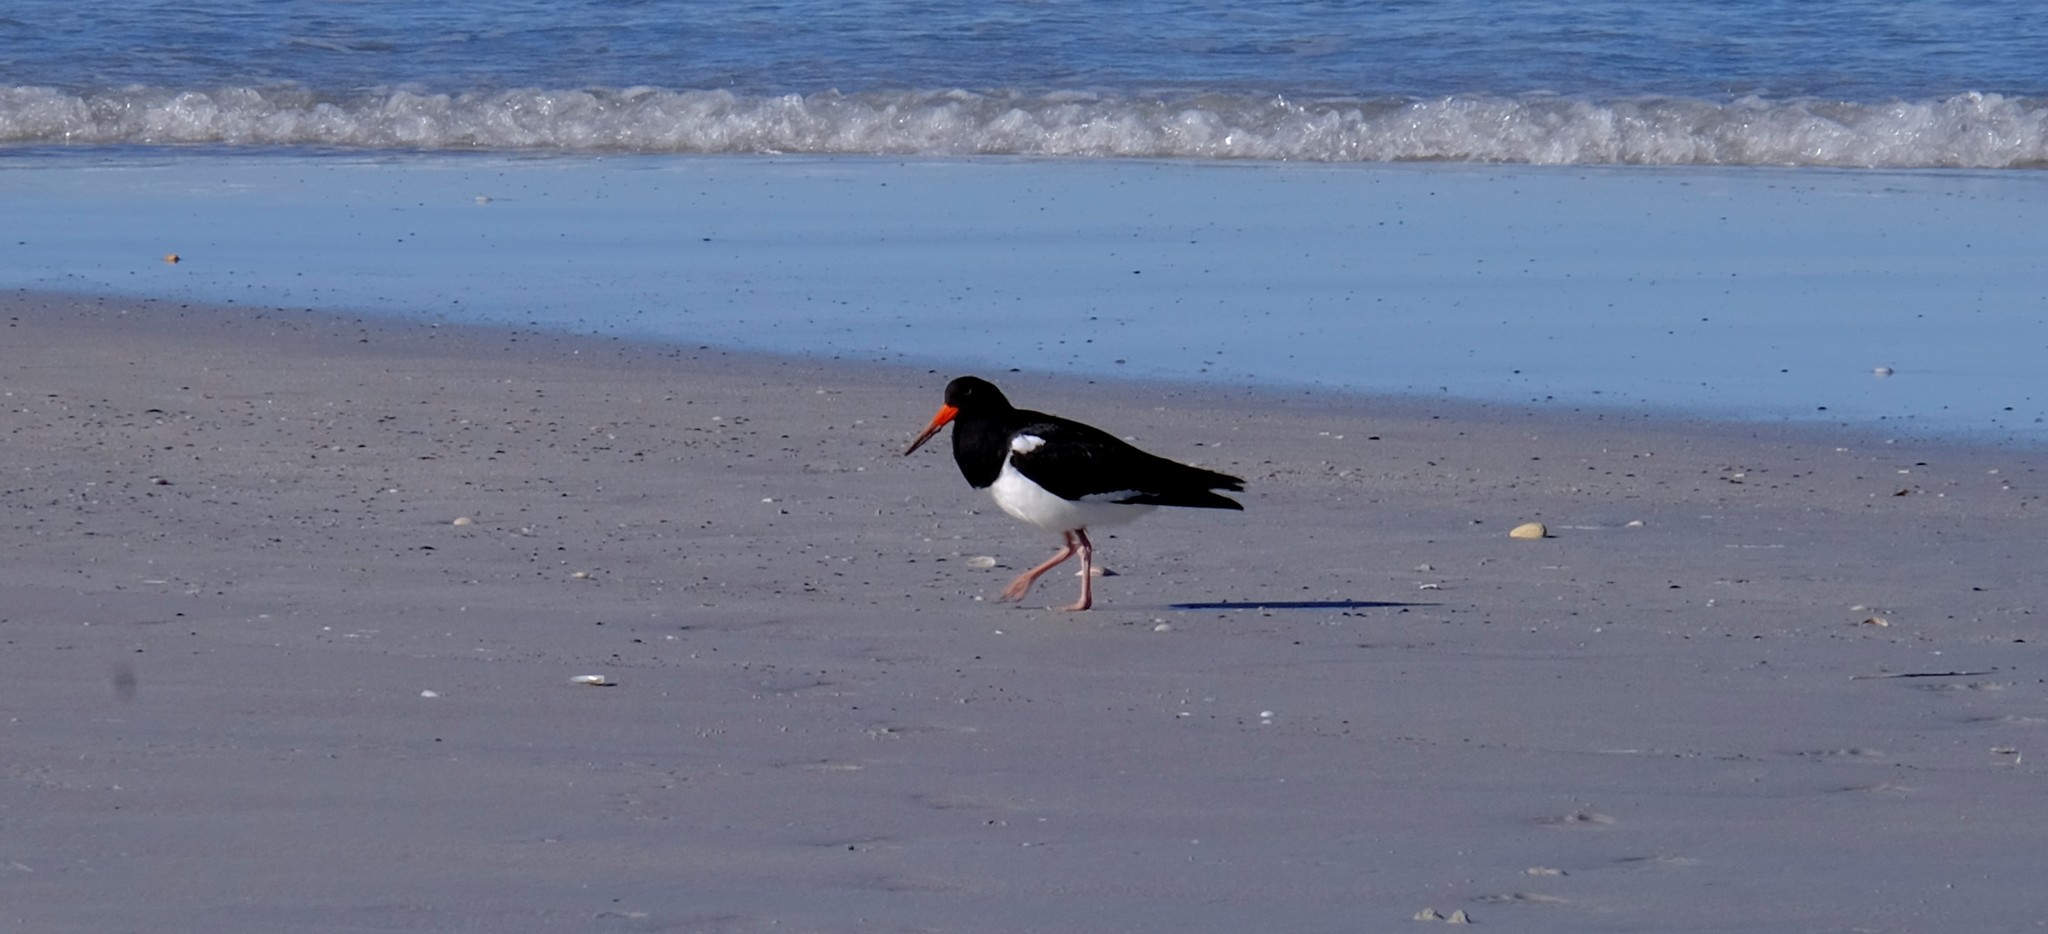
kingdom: Animalia
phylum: Chordata
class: Aves
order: Charadriiformes
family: Haematopodidae
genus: Haematopus
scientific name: Haematopus longirostris
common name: Pied oystercatcher
